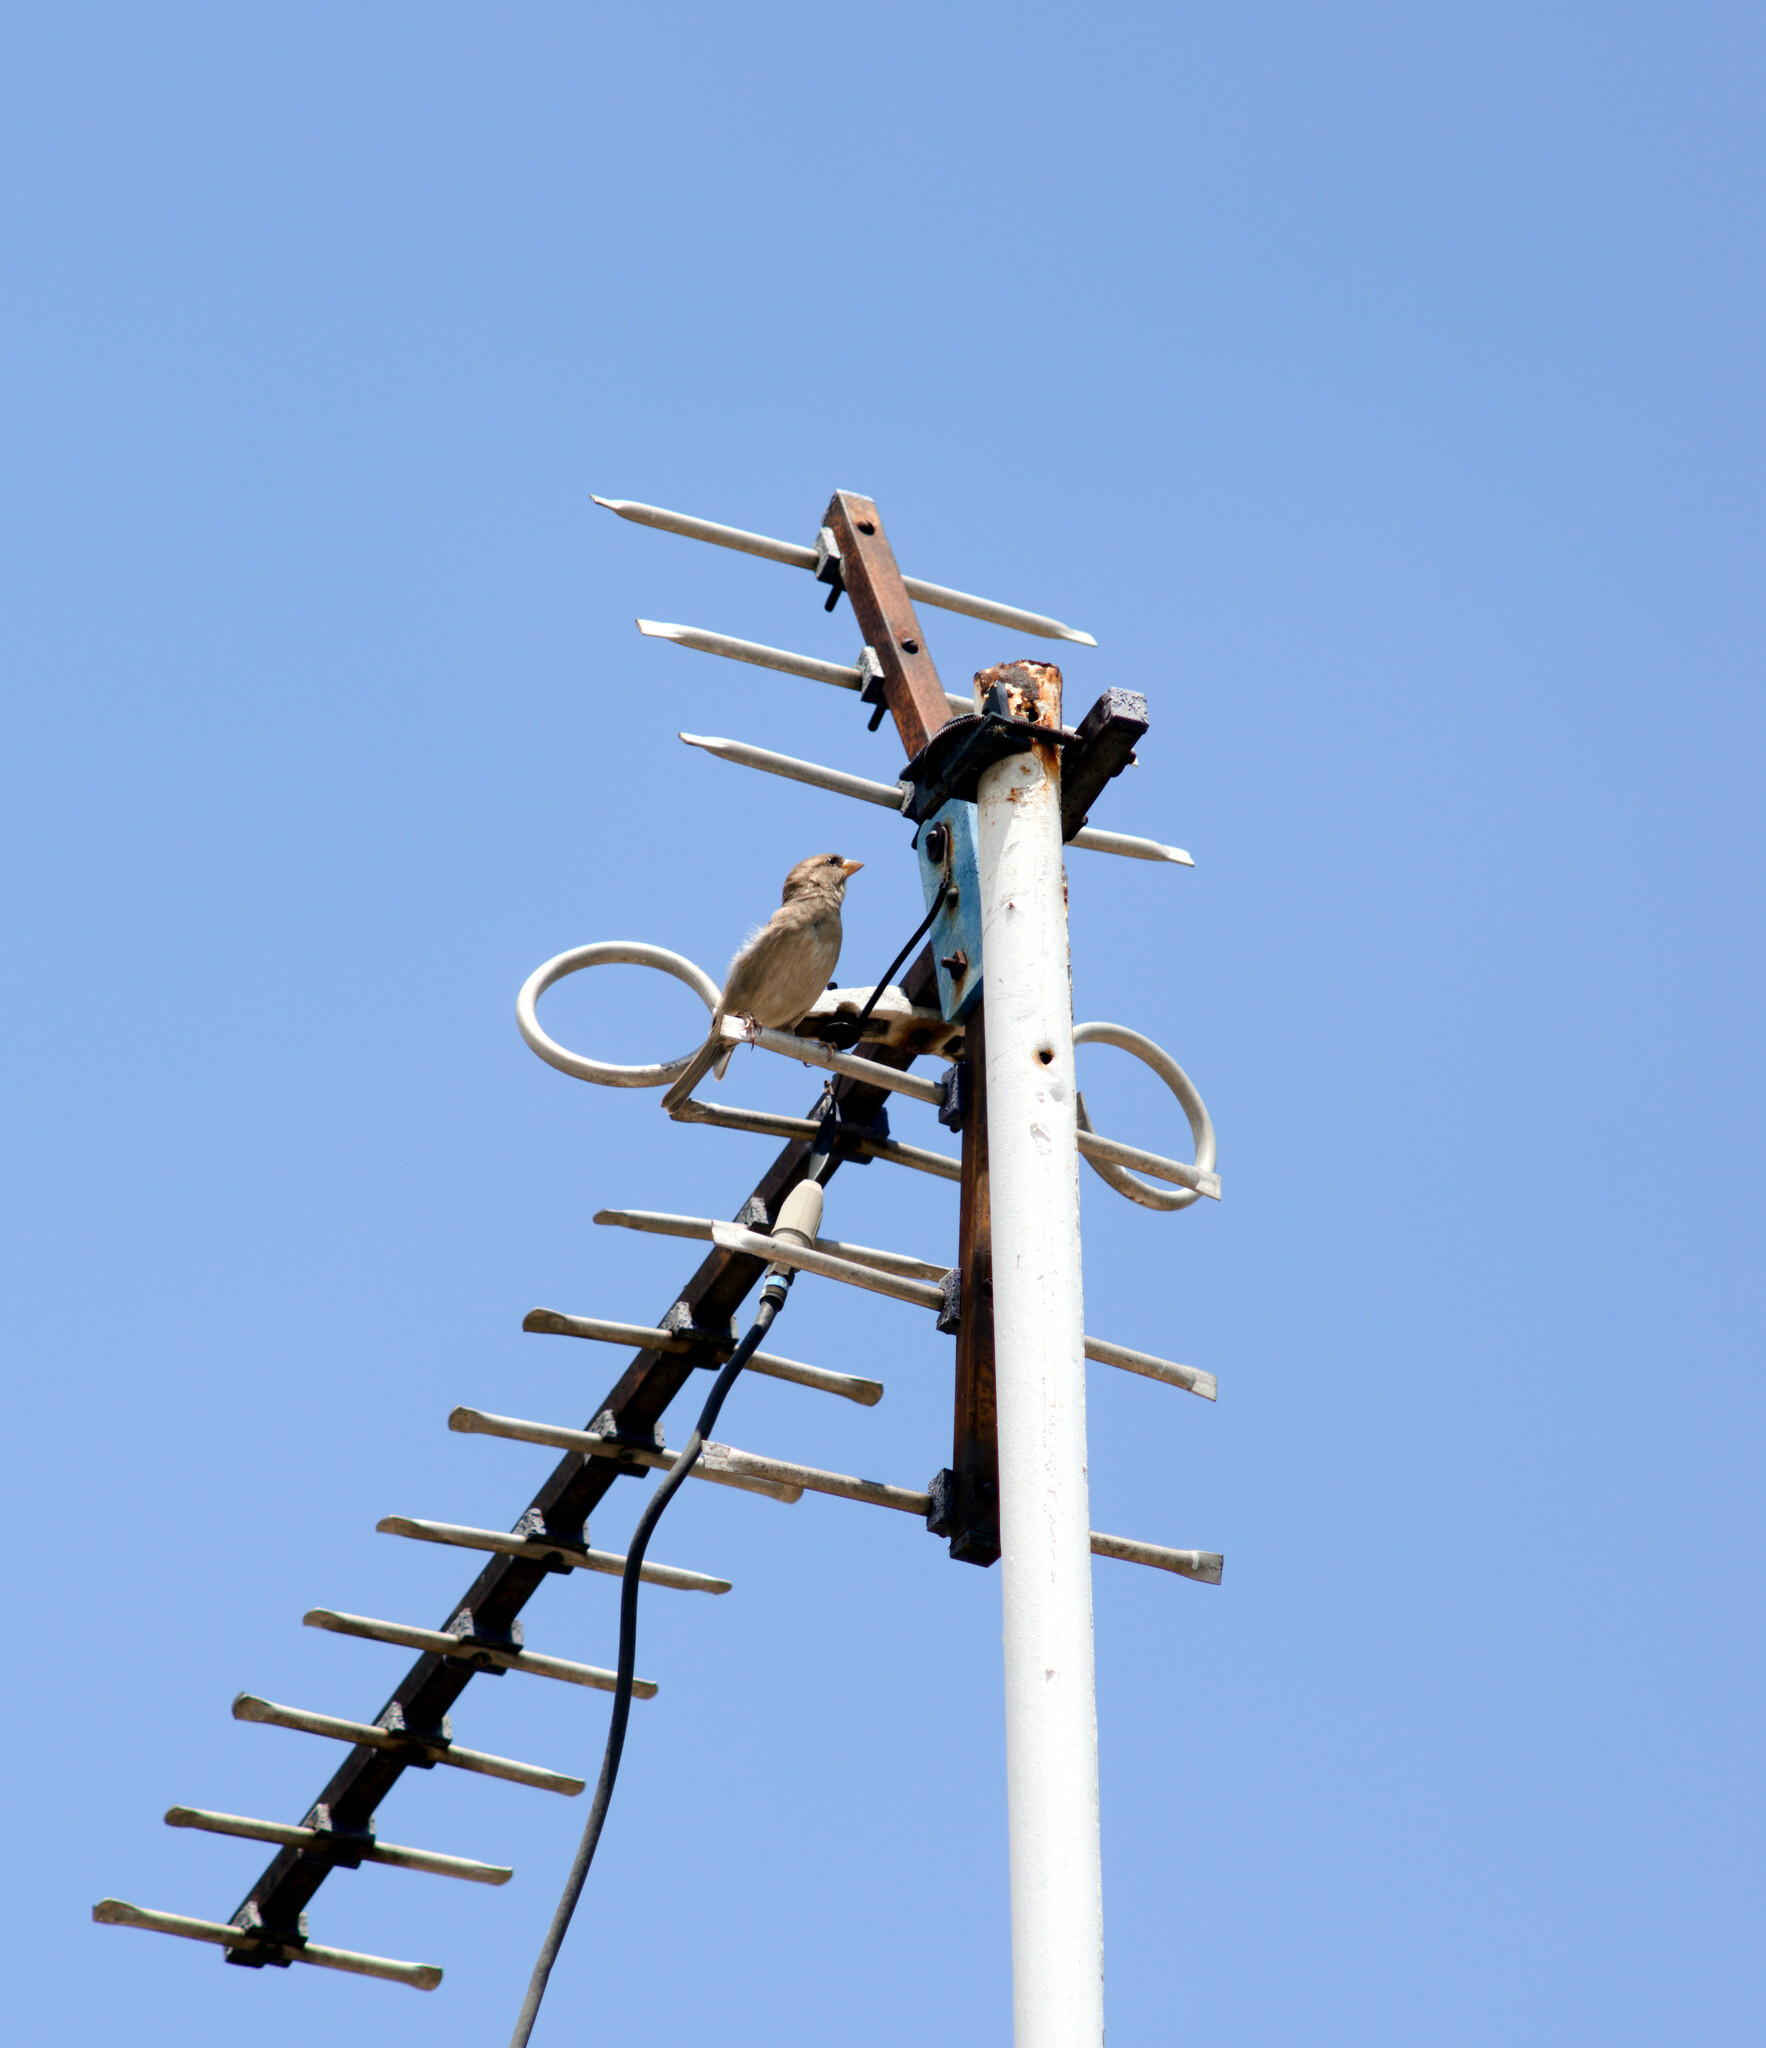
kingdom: Animalia
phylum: Chordata
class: Aves
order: Passeriformes
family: Passeridae
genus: Passer
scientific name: Passer domesticus
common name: House sparrow
